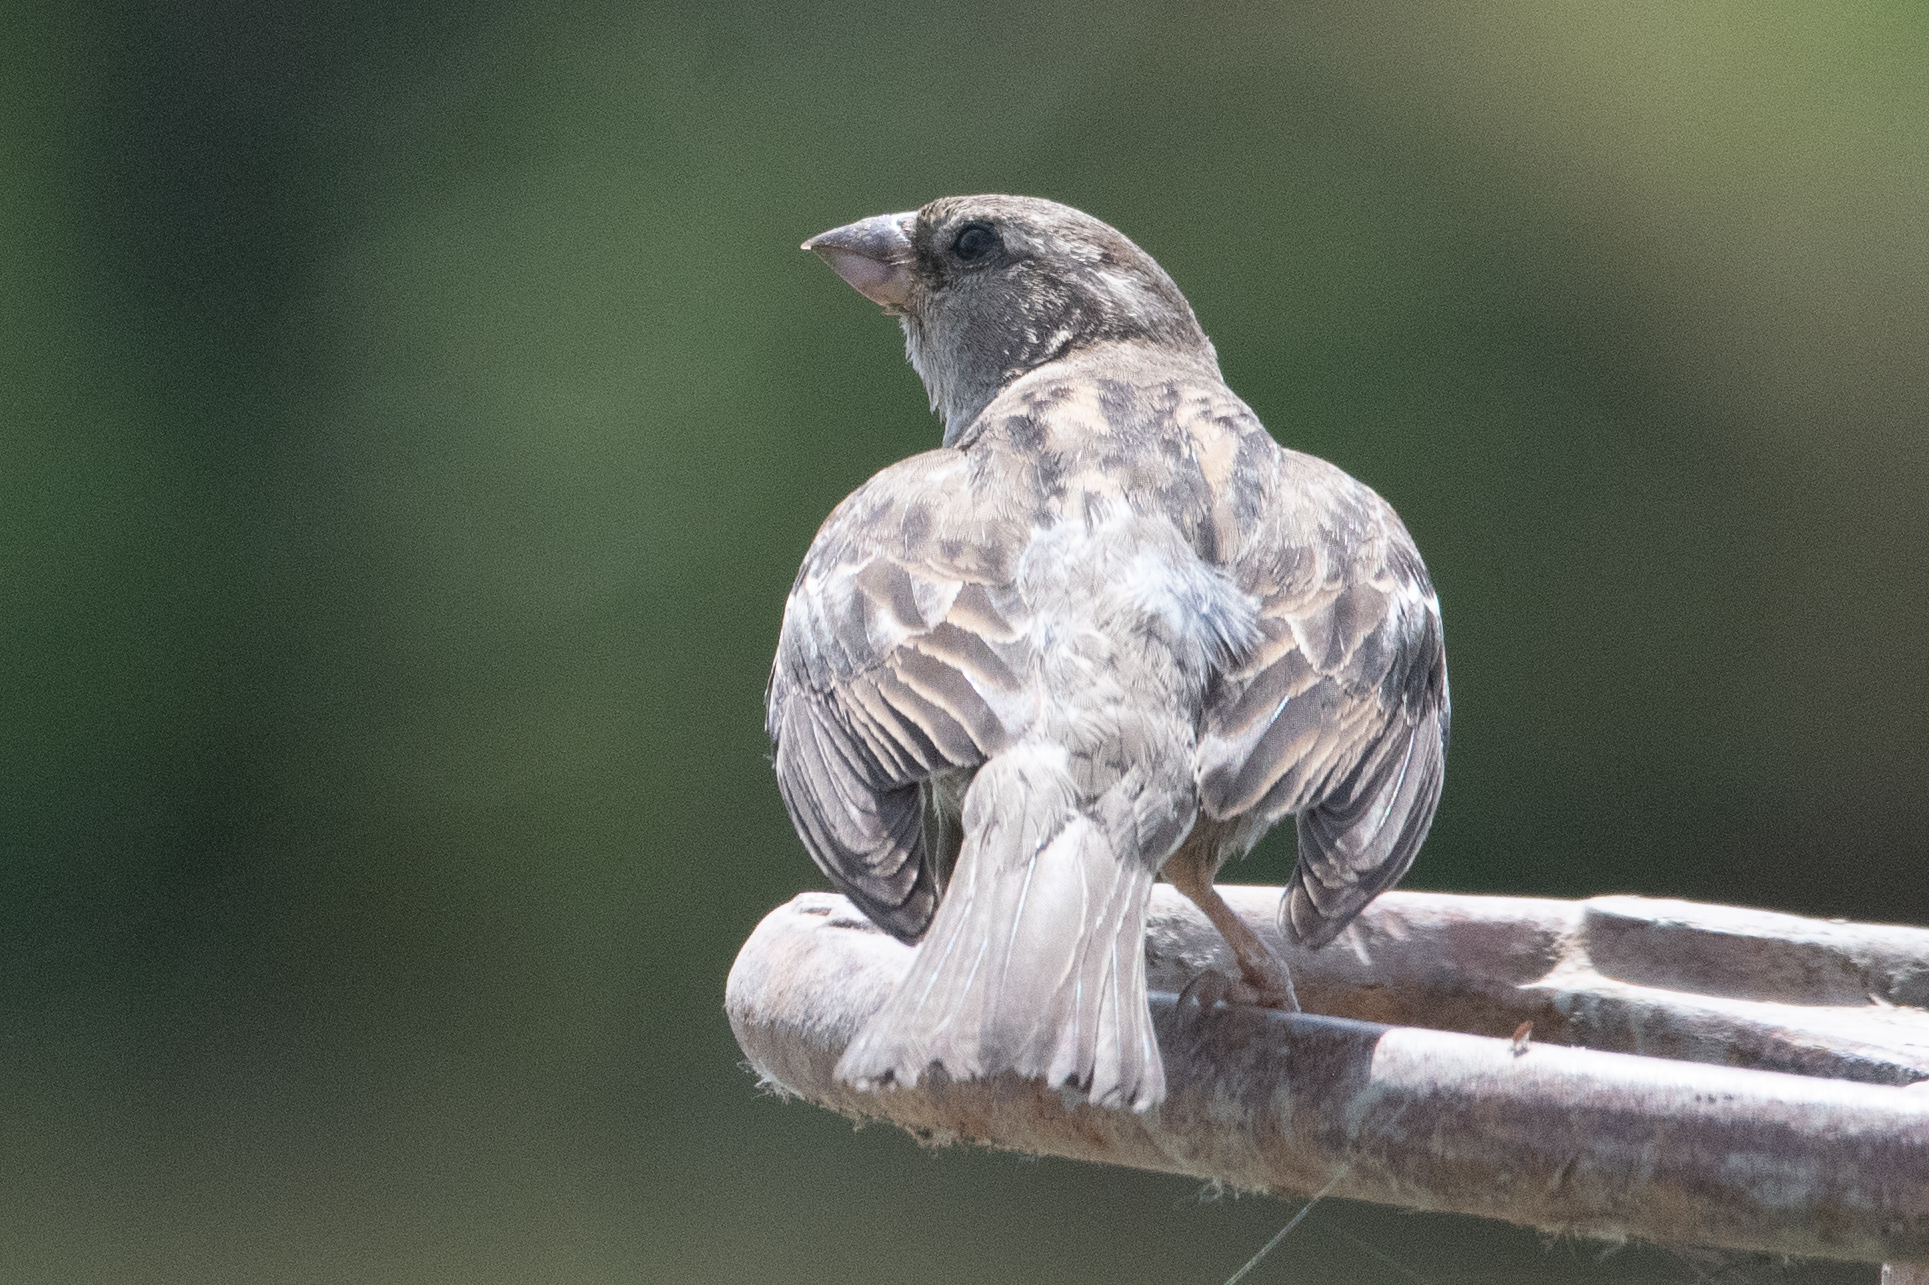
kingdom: Animalia
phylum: Chordata
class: Aves
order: Passeriformes
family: Passeridae
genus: Passer
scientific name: Passer domesticus
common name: House sparrow
